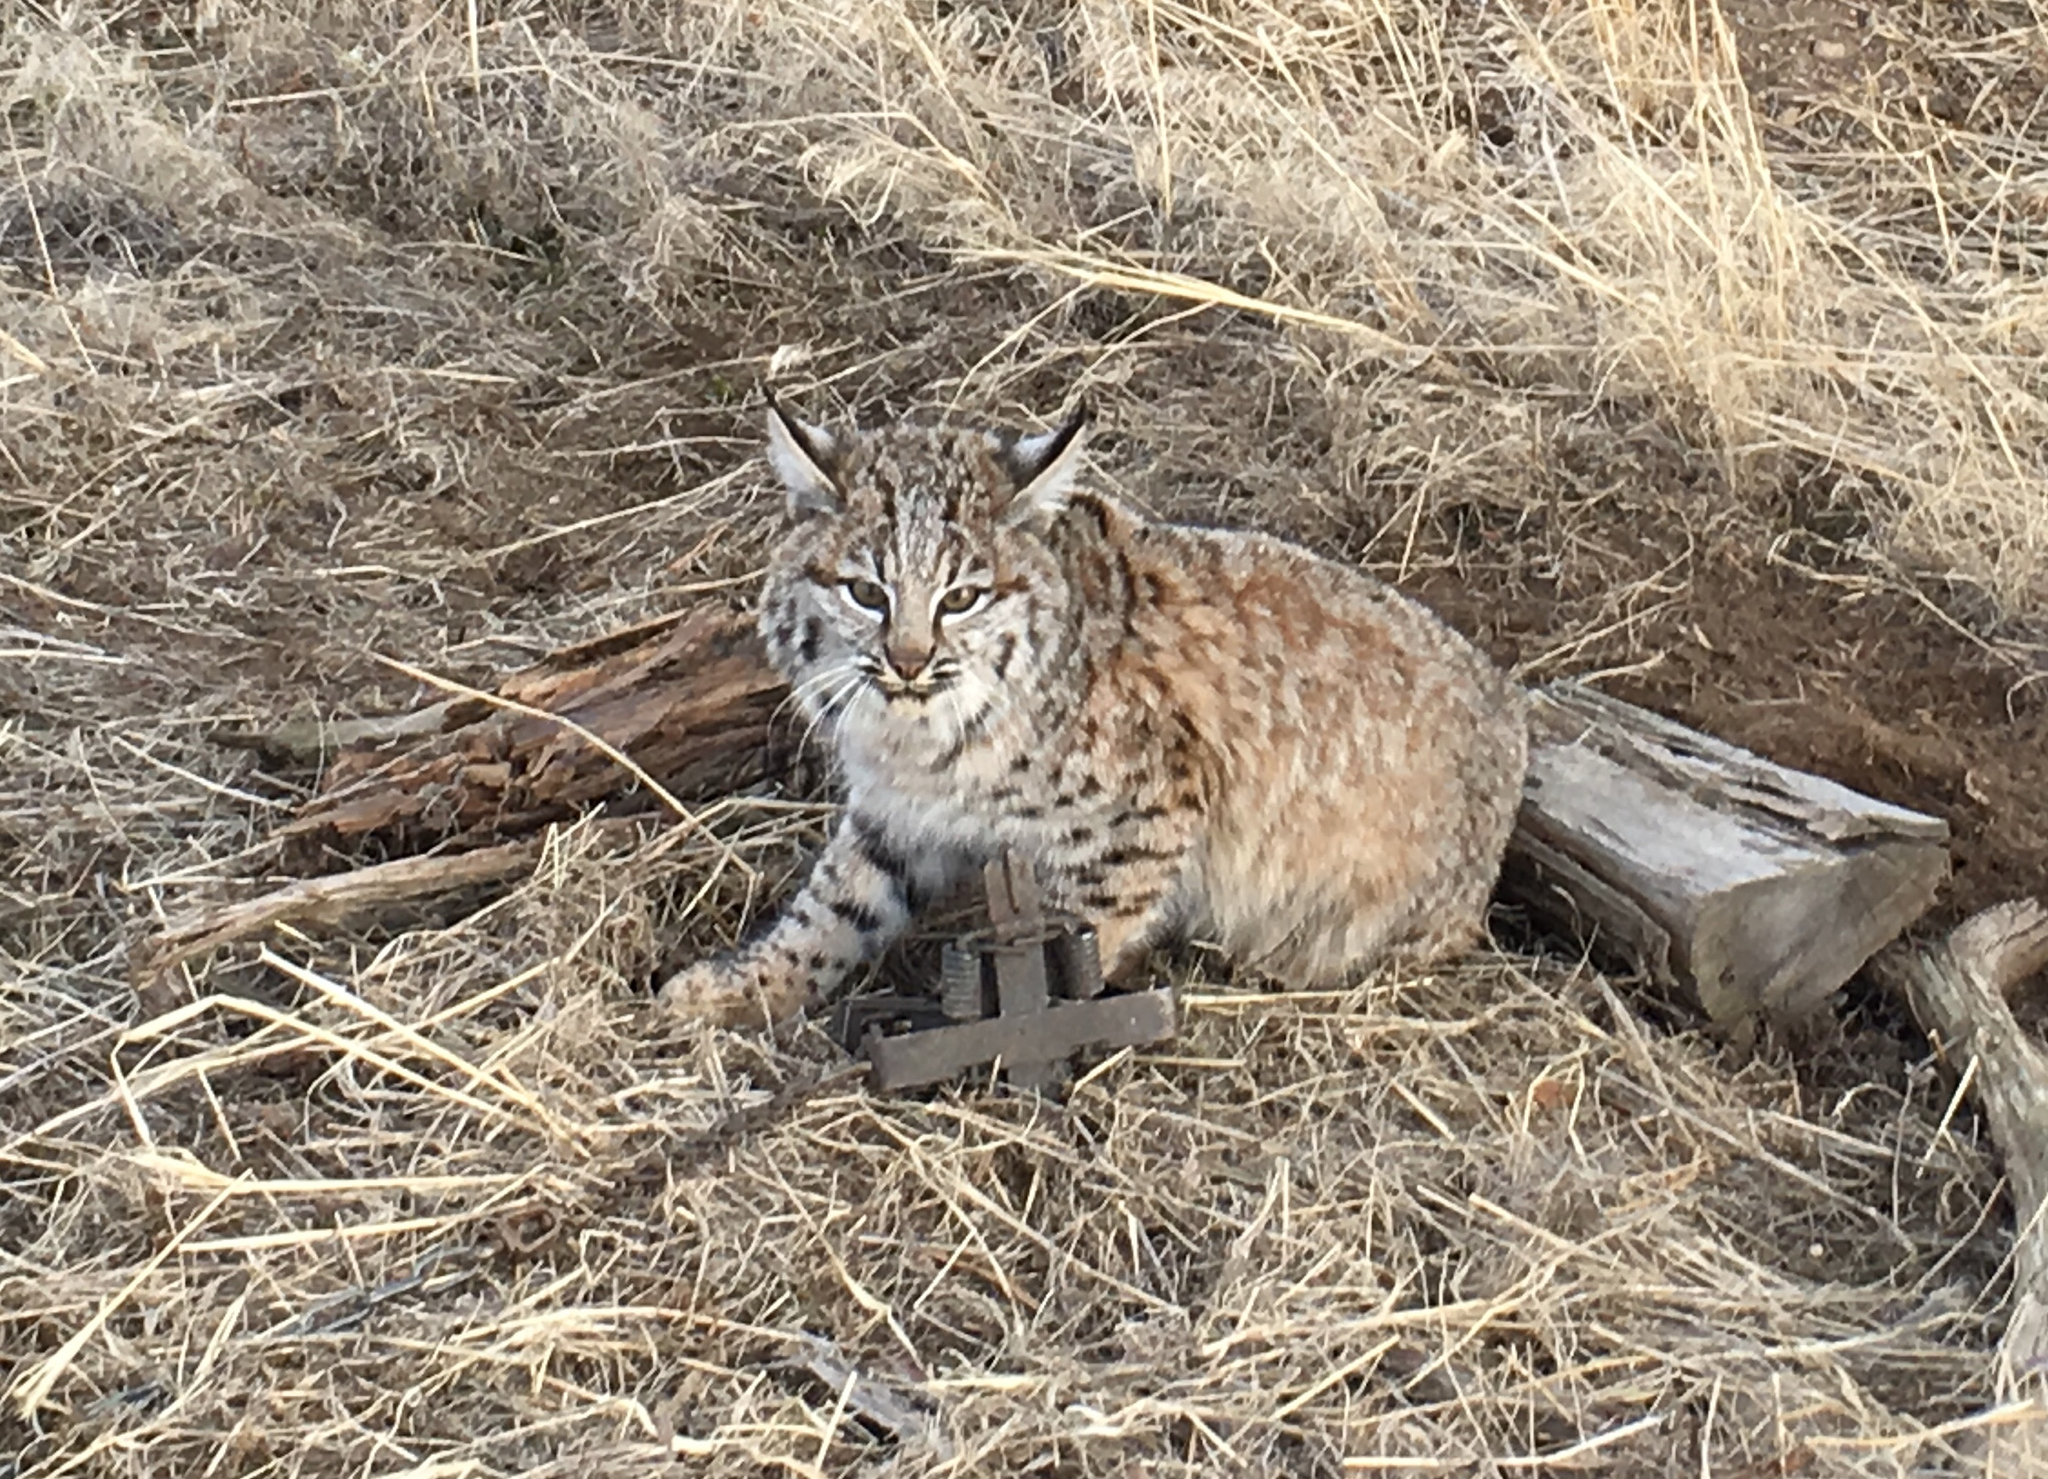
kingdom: Animalia
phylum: Chordata
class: Mammalia
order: Carnivora
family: Felidae
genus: Lynx
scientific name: Lynx rufus
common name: Bobcat
